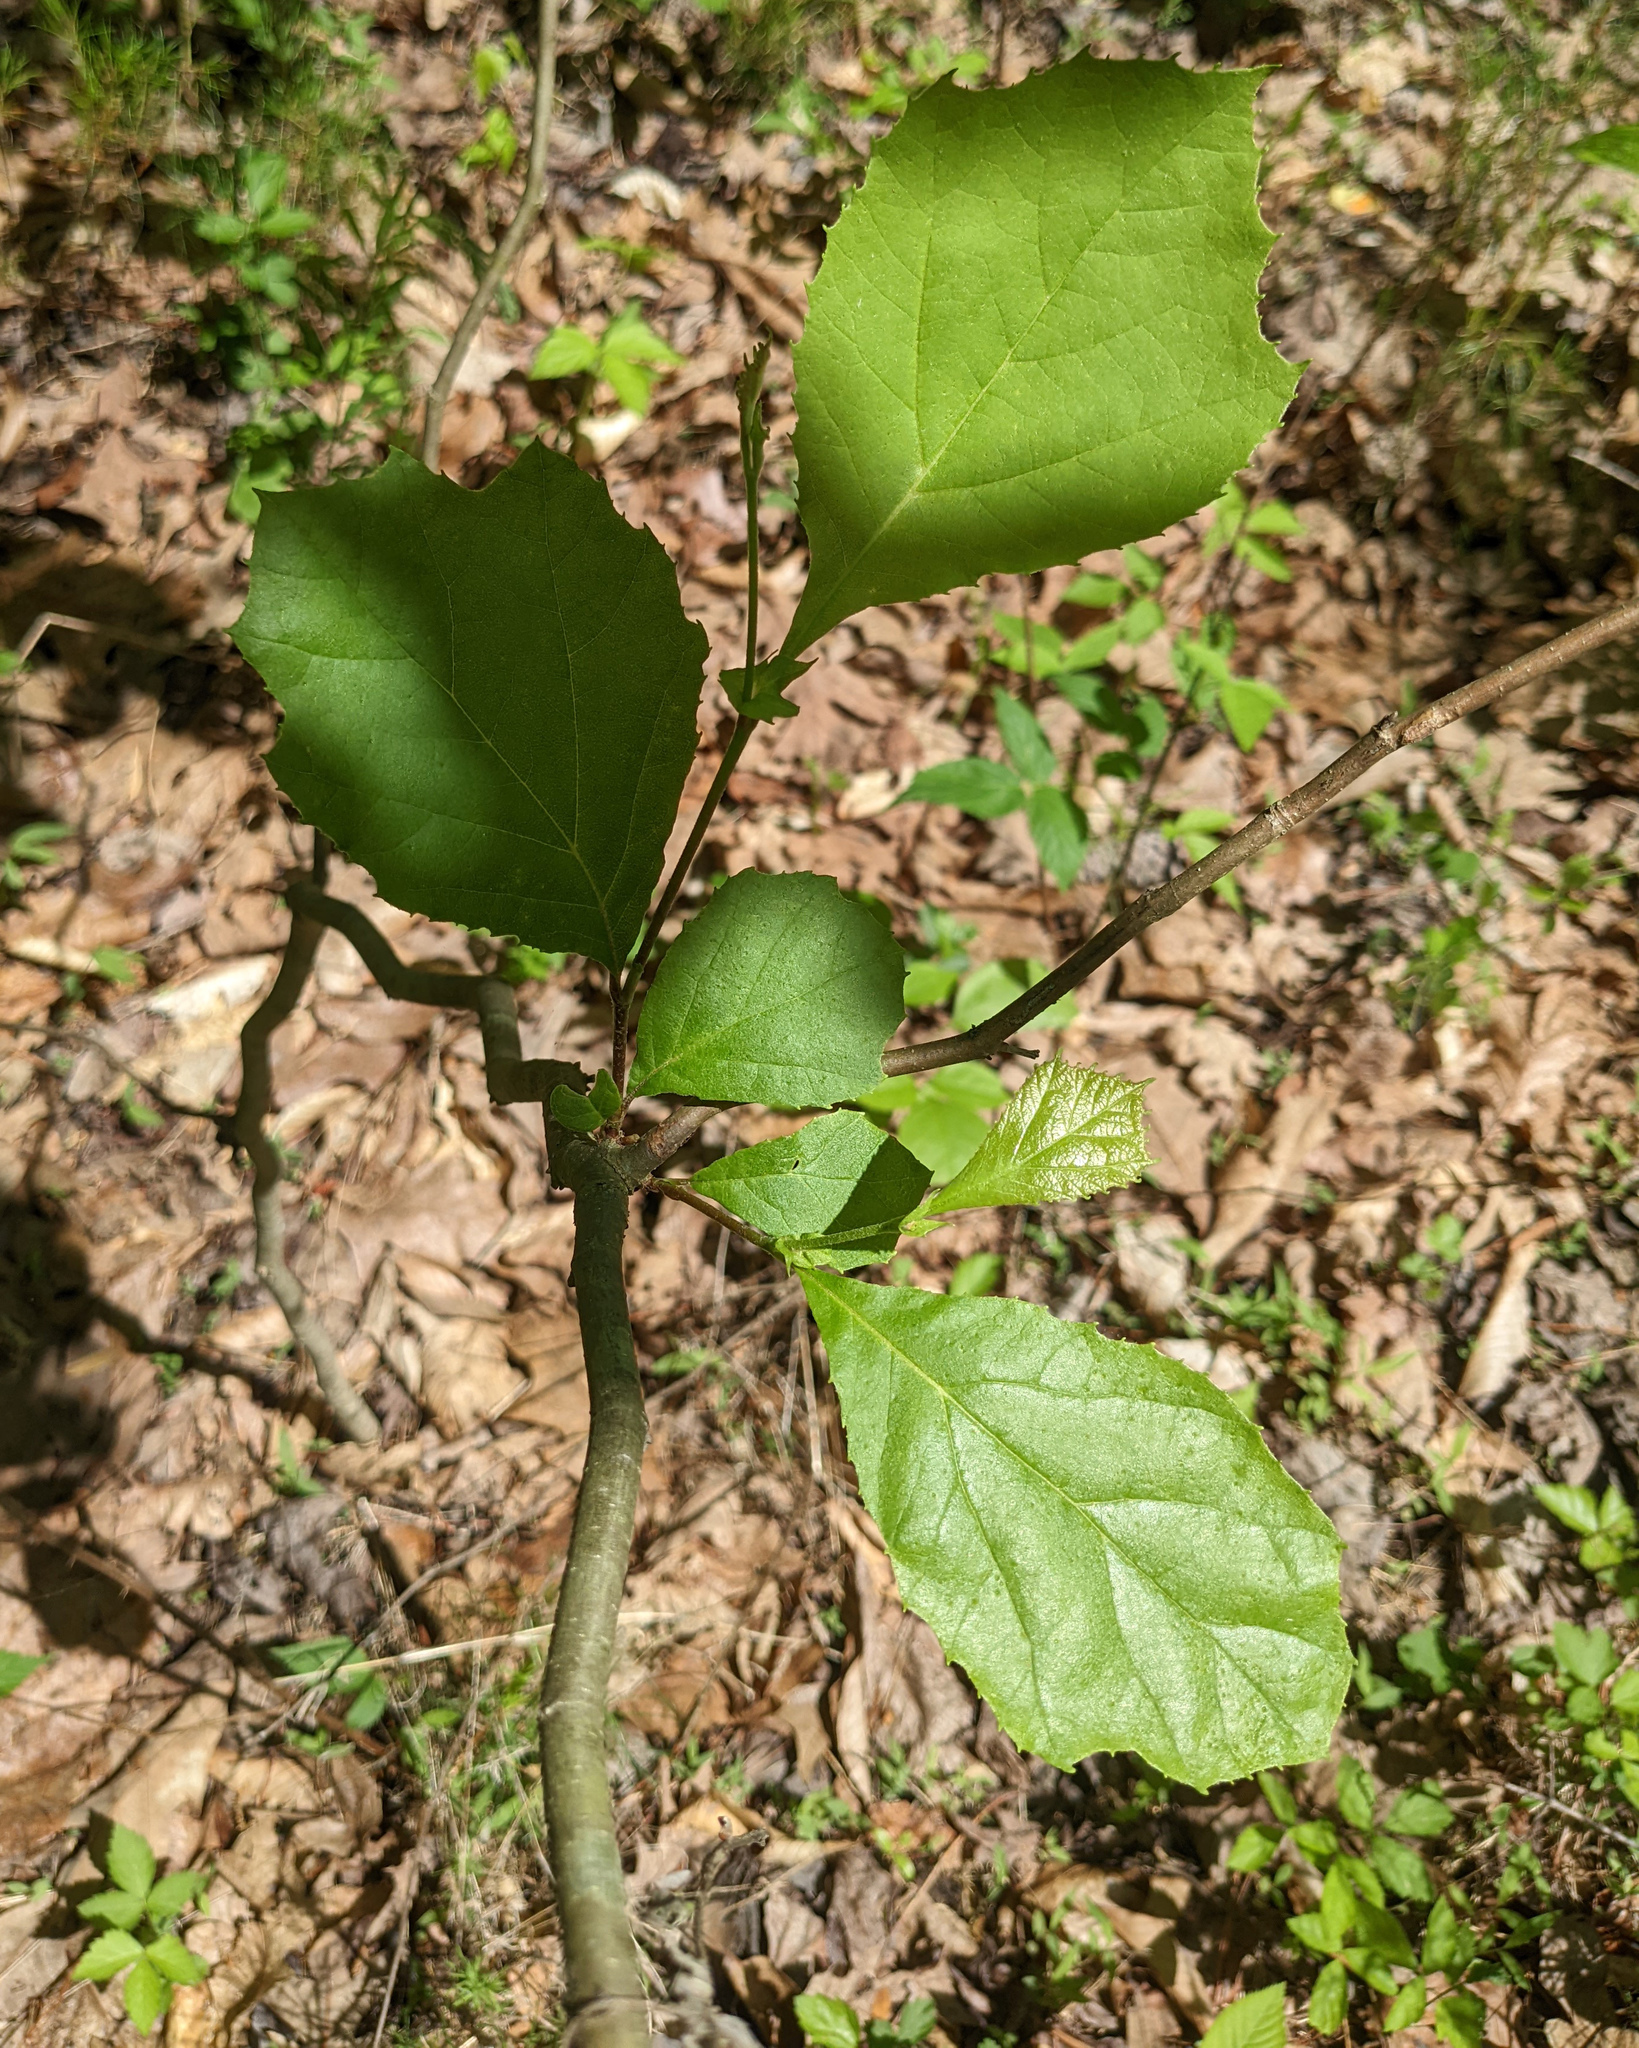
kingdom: Plantae
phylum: Tracheophyta
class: Magnoliopsida
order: Proteales
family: Platanaceae
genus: Platanus
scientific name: Platanus occidentalis
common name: American sycamore
